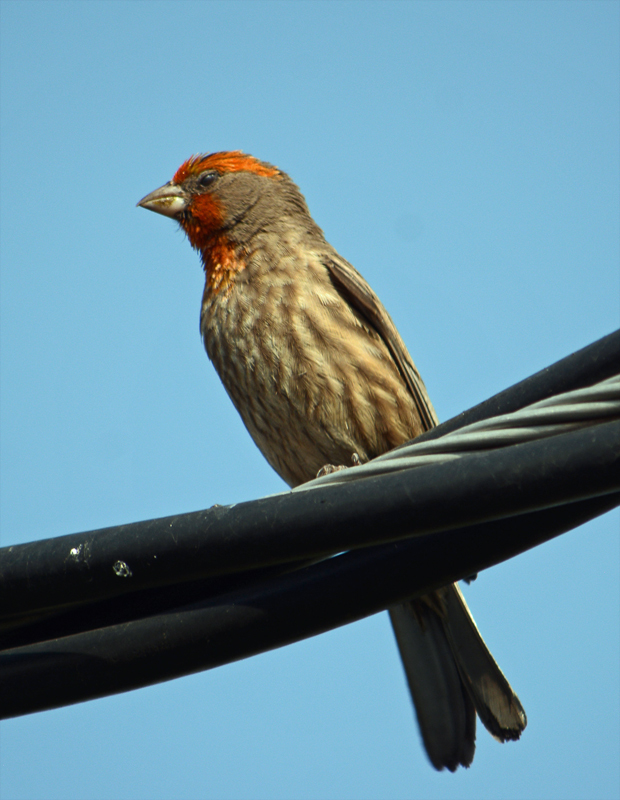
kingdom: Animalia
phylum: Chordata
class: Aves
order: Passeriformes
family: Fringillidae
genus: Haemorhous
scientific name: Haemorhous mexicanus
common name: House finch
